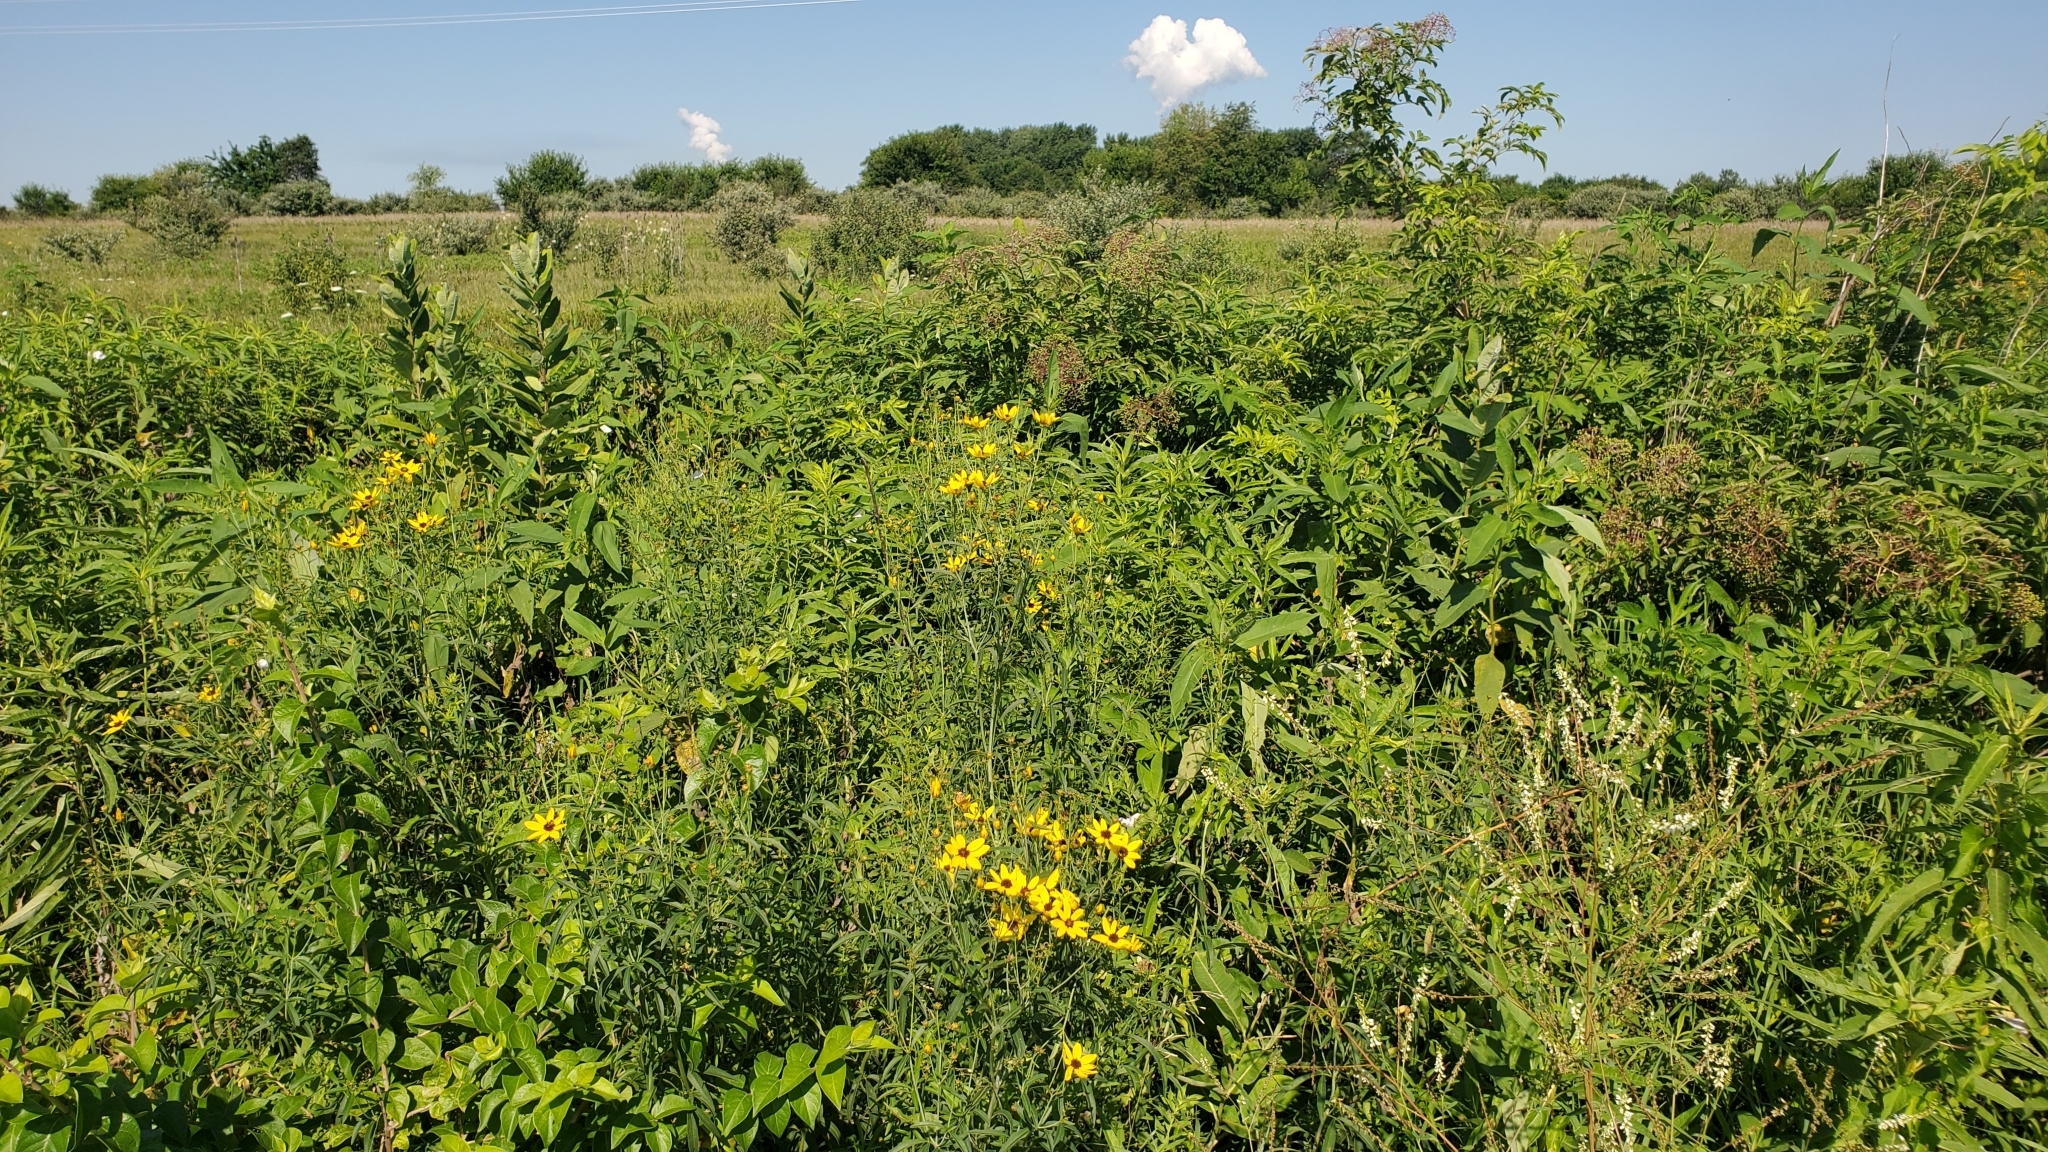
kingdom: Plantae
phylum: Tracheophyta
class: Magnoliopsida
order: Asterales
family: Asteraceae
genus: Coreopsis
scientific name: Coreopsis tripteris
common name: Tall coreopsis
